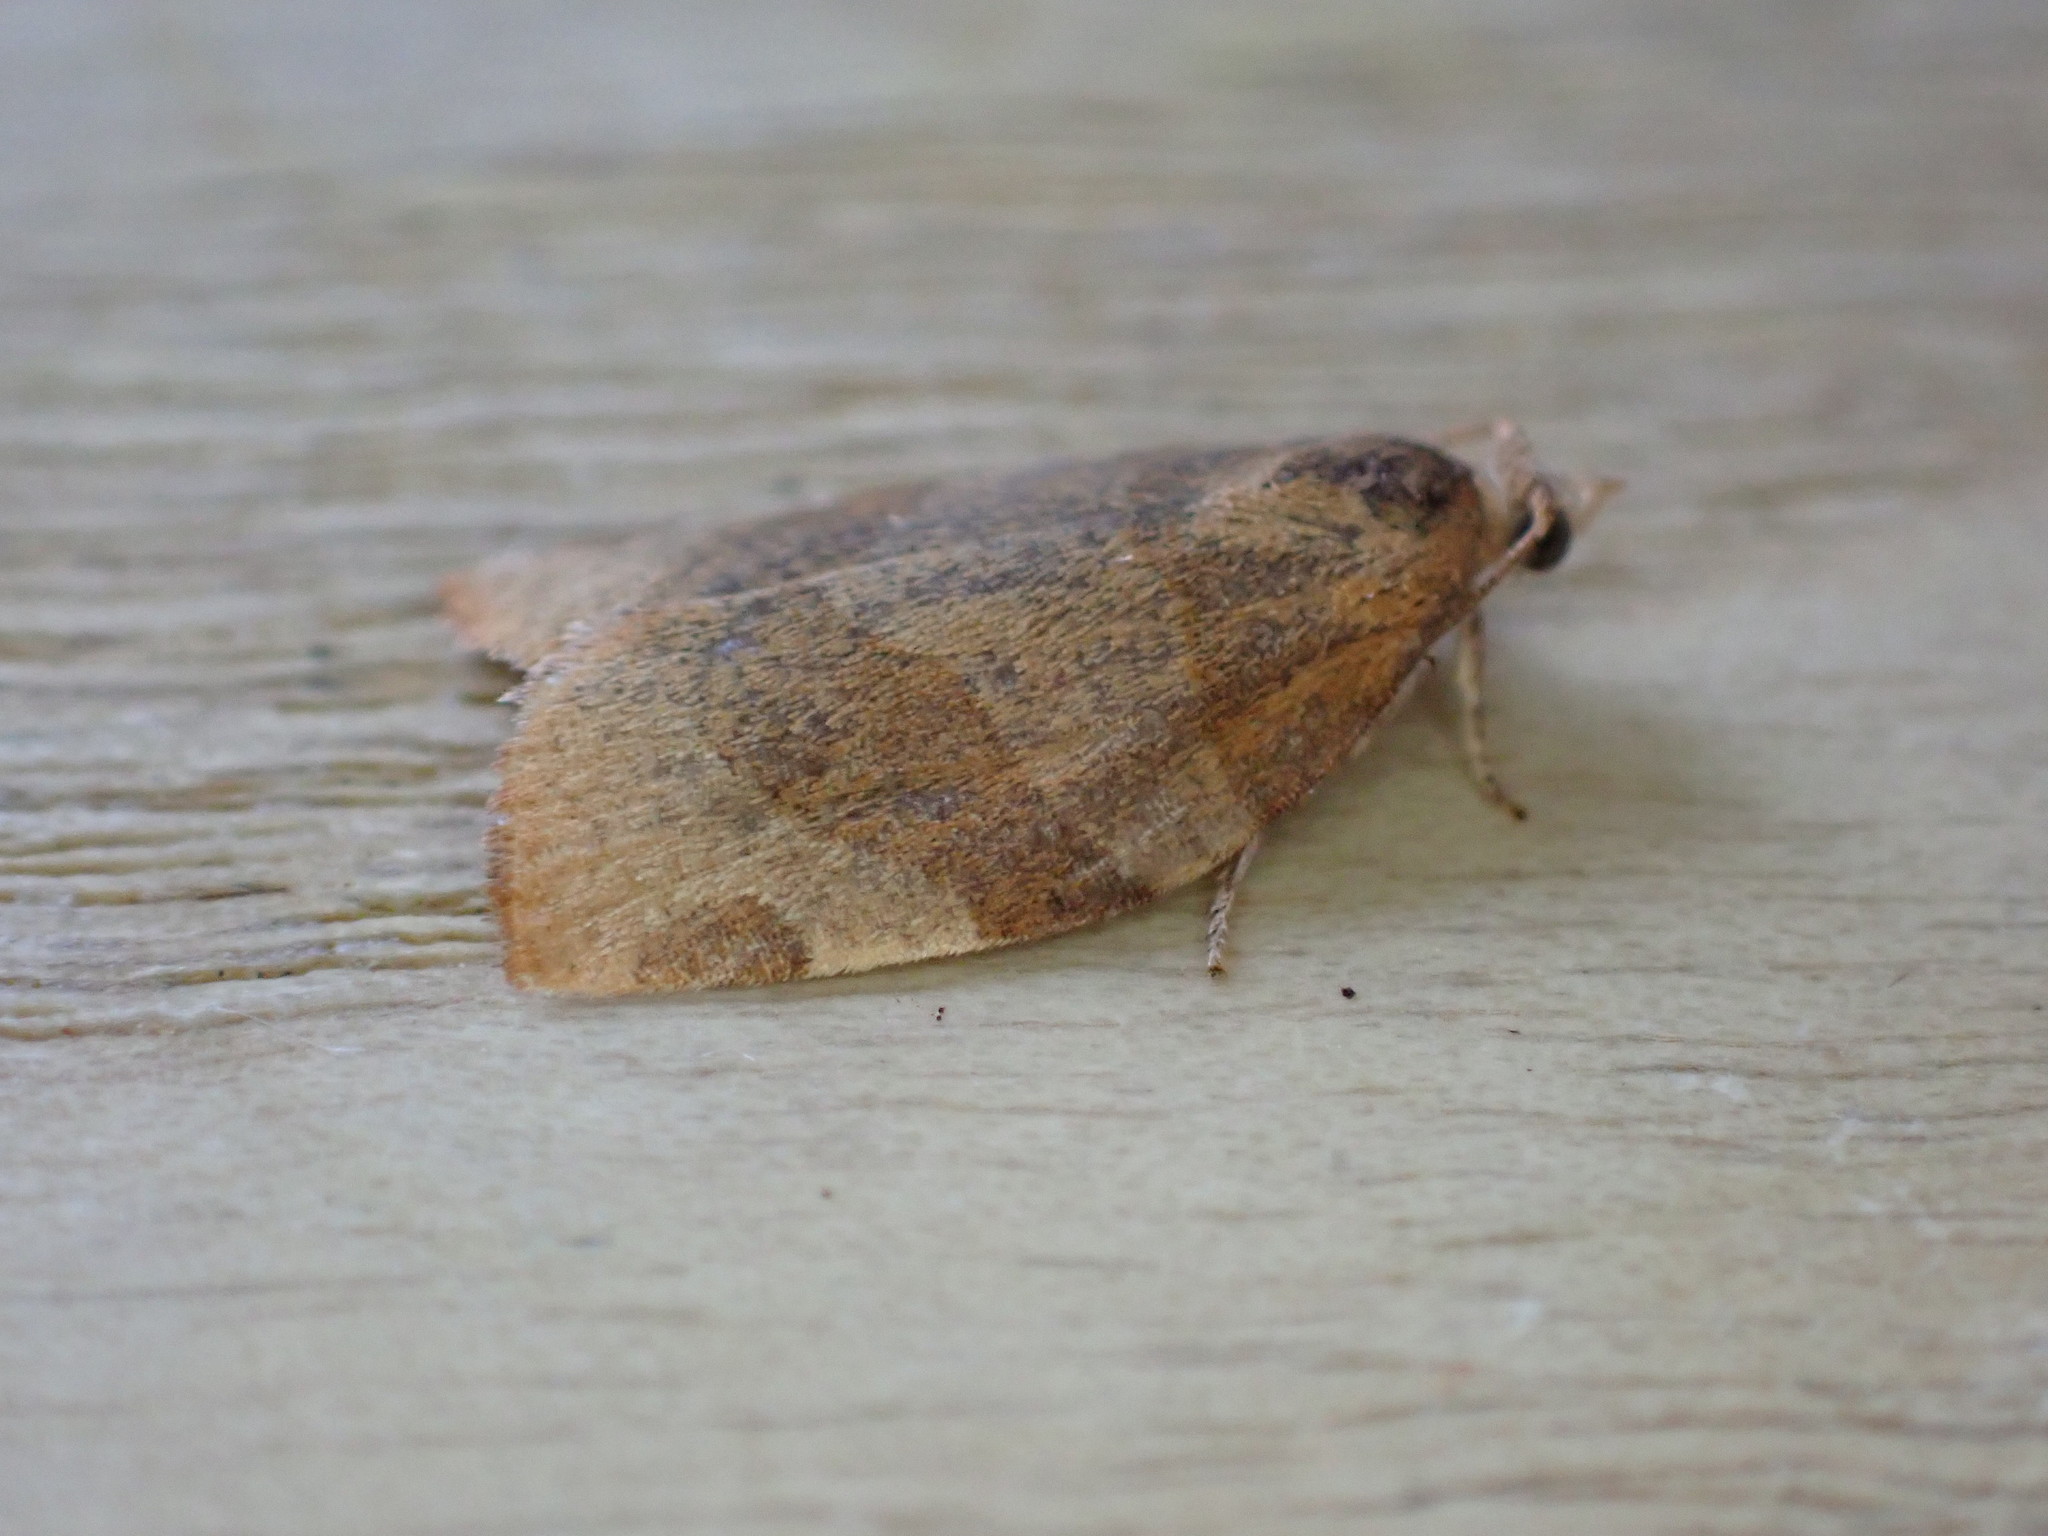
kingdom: Animalia
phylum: Arthropoda
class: Insecta
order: Lepidoptera
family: Tortricidae
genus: Pandemis
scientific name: Pandemis cerasana
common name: Barred fruit-tree tortrix
